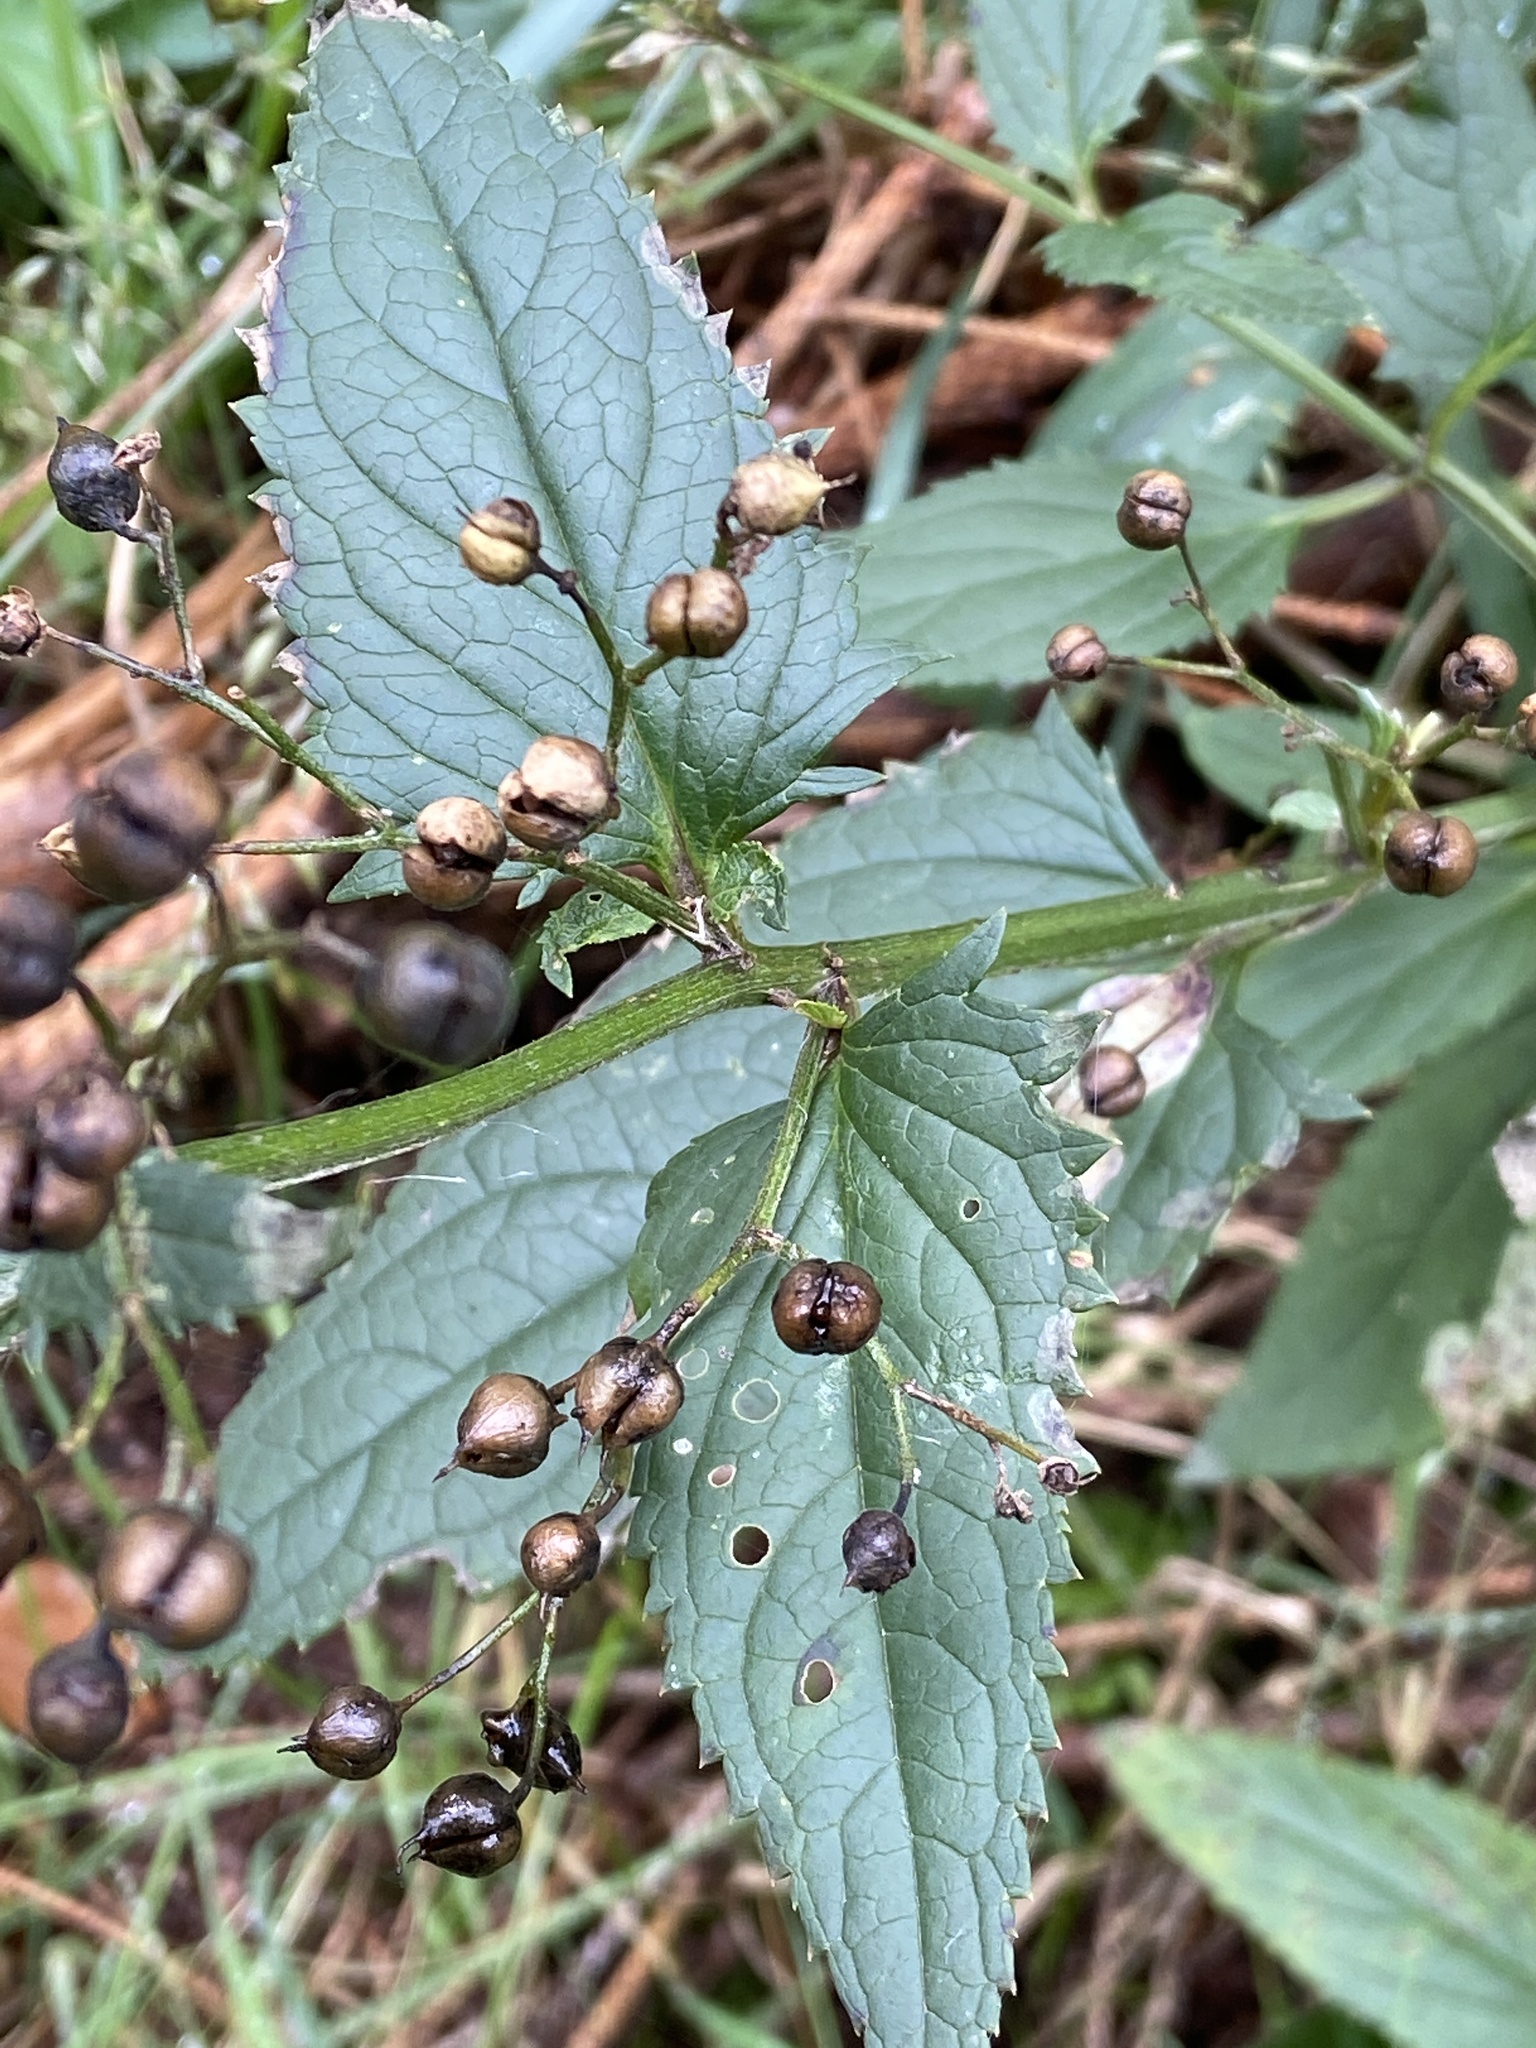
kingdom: Plantae
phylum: Tracheophyta
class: Magnoliopsida
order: Lamiales
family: Scrophulariaceae
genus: Scrophularia
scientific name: Scrophularia nodosa
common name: Common figwort
